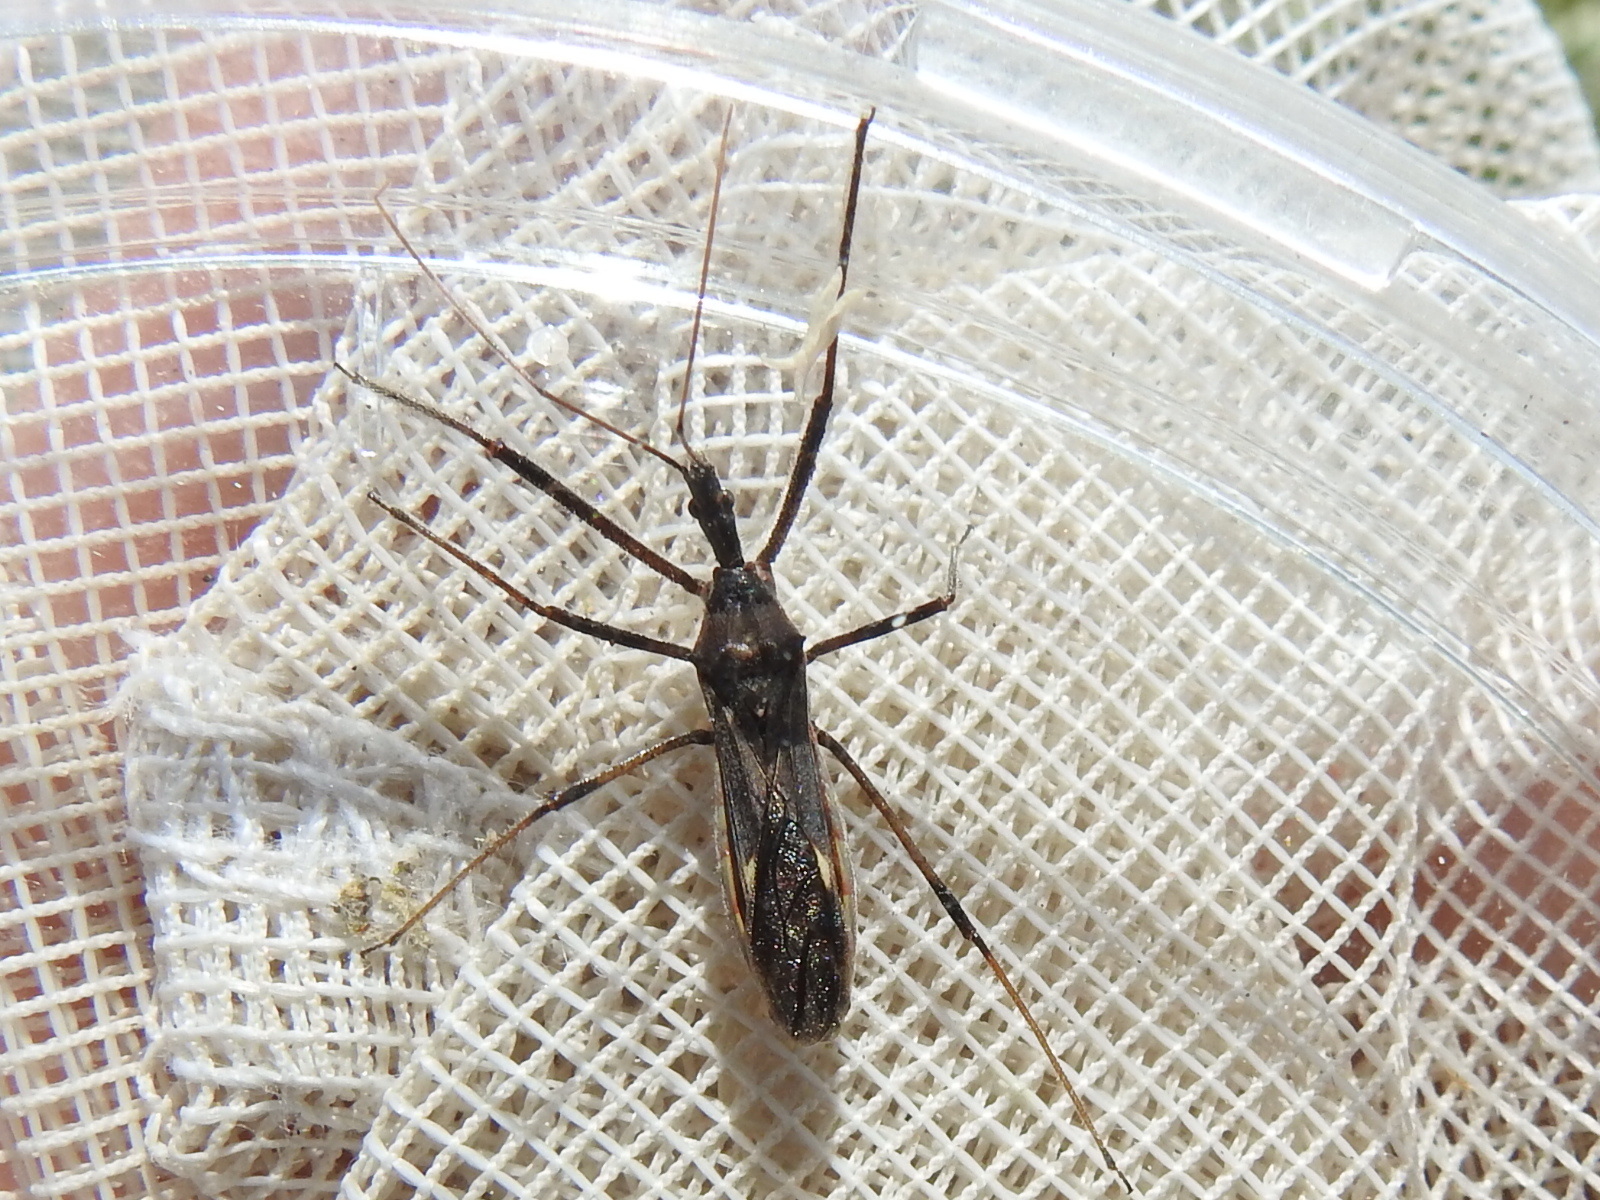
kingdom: Animalia
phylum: Arthropoda
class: Insecta
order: Hemiptera
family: Reduviidae
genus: Zelus
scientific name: Zelus tetracanthus
